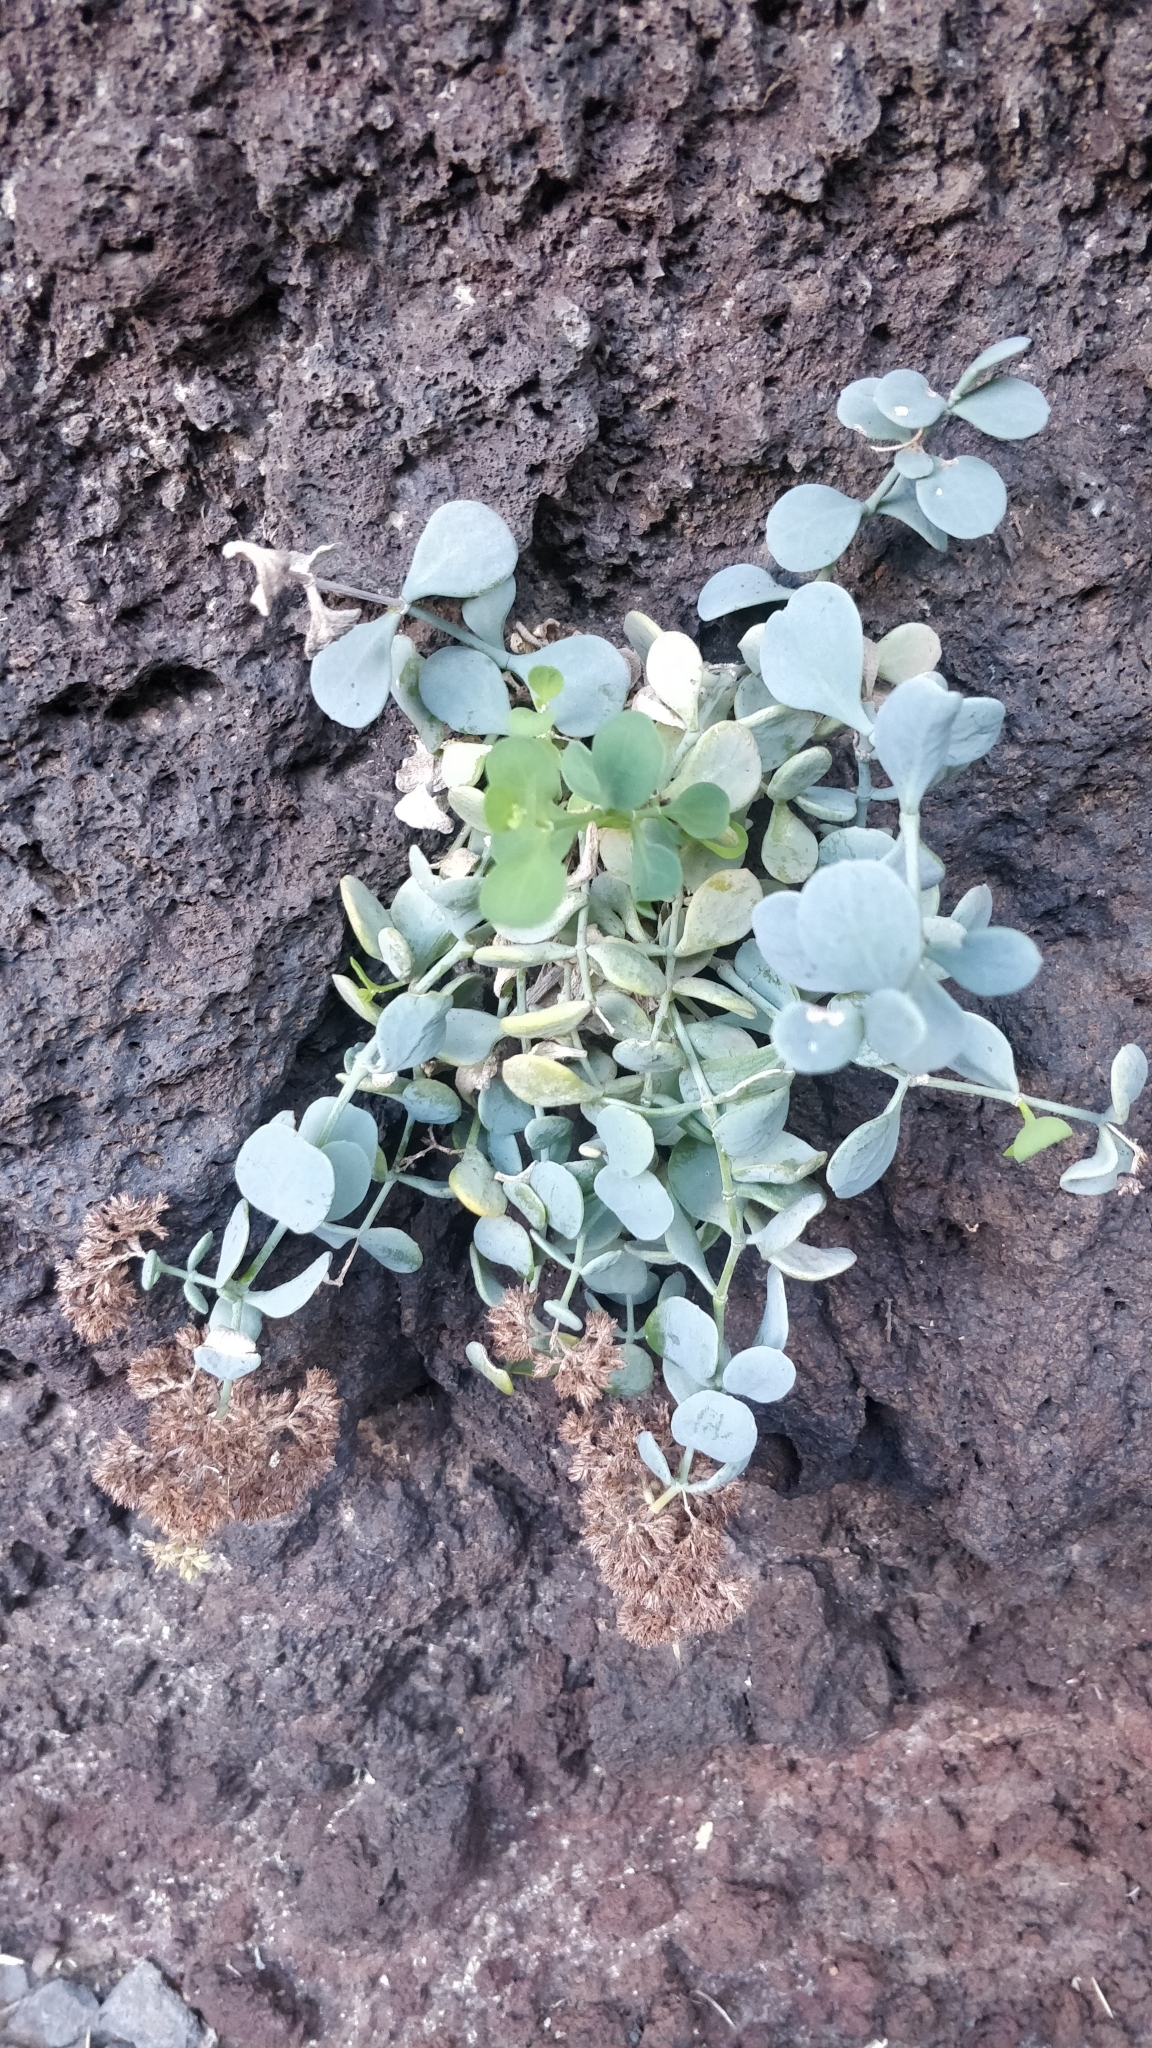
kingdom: Plantae
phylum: Tracheophyta
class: Magnoliopsida
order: Caryophyllales
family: Caryophyllaceae
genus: Polycarpaea
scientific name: Polycarpaea carnosa
